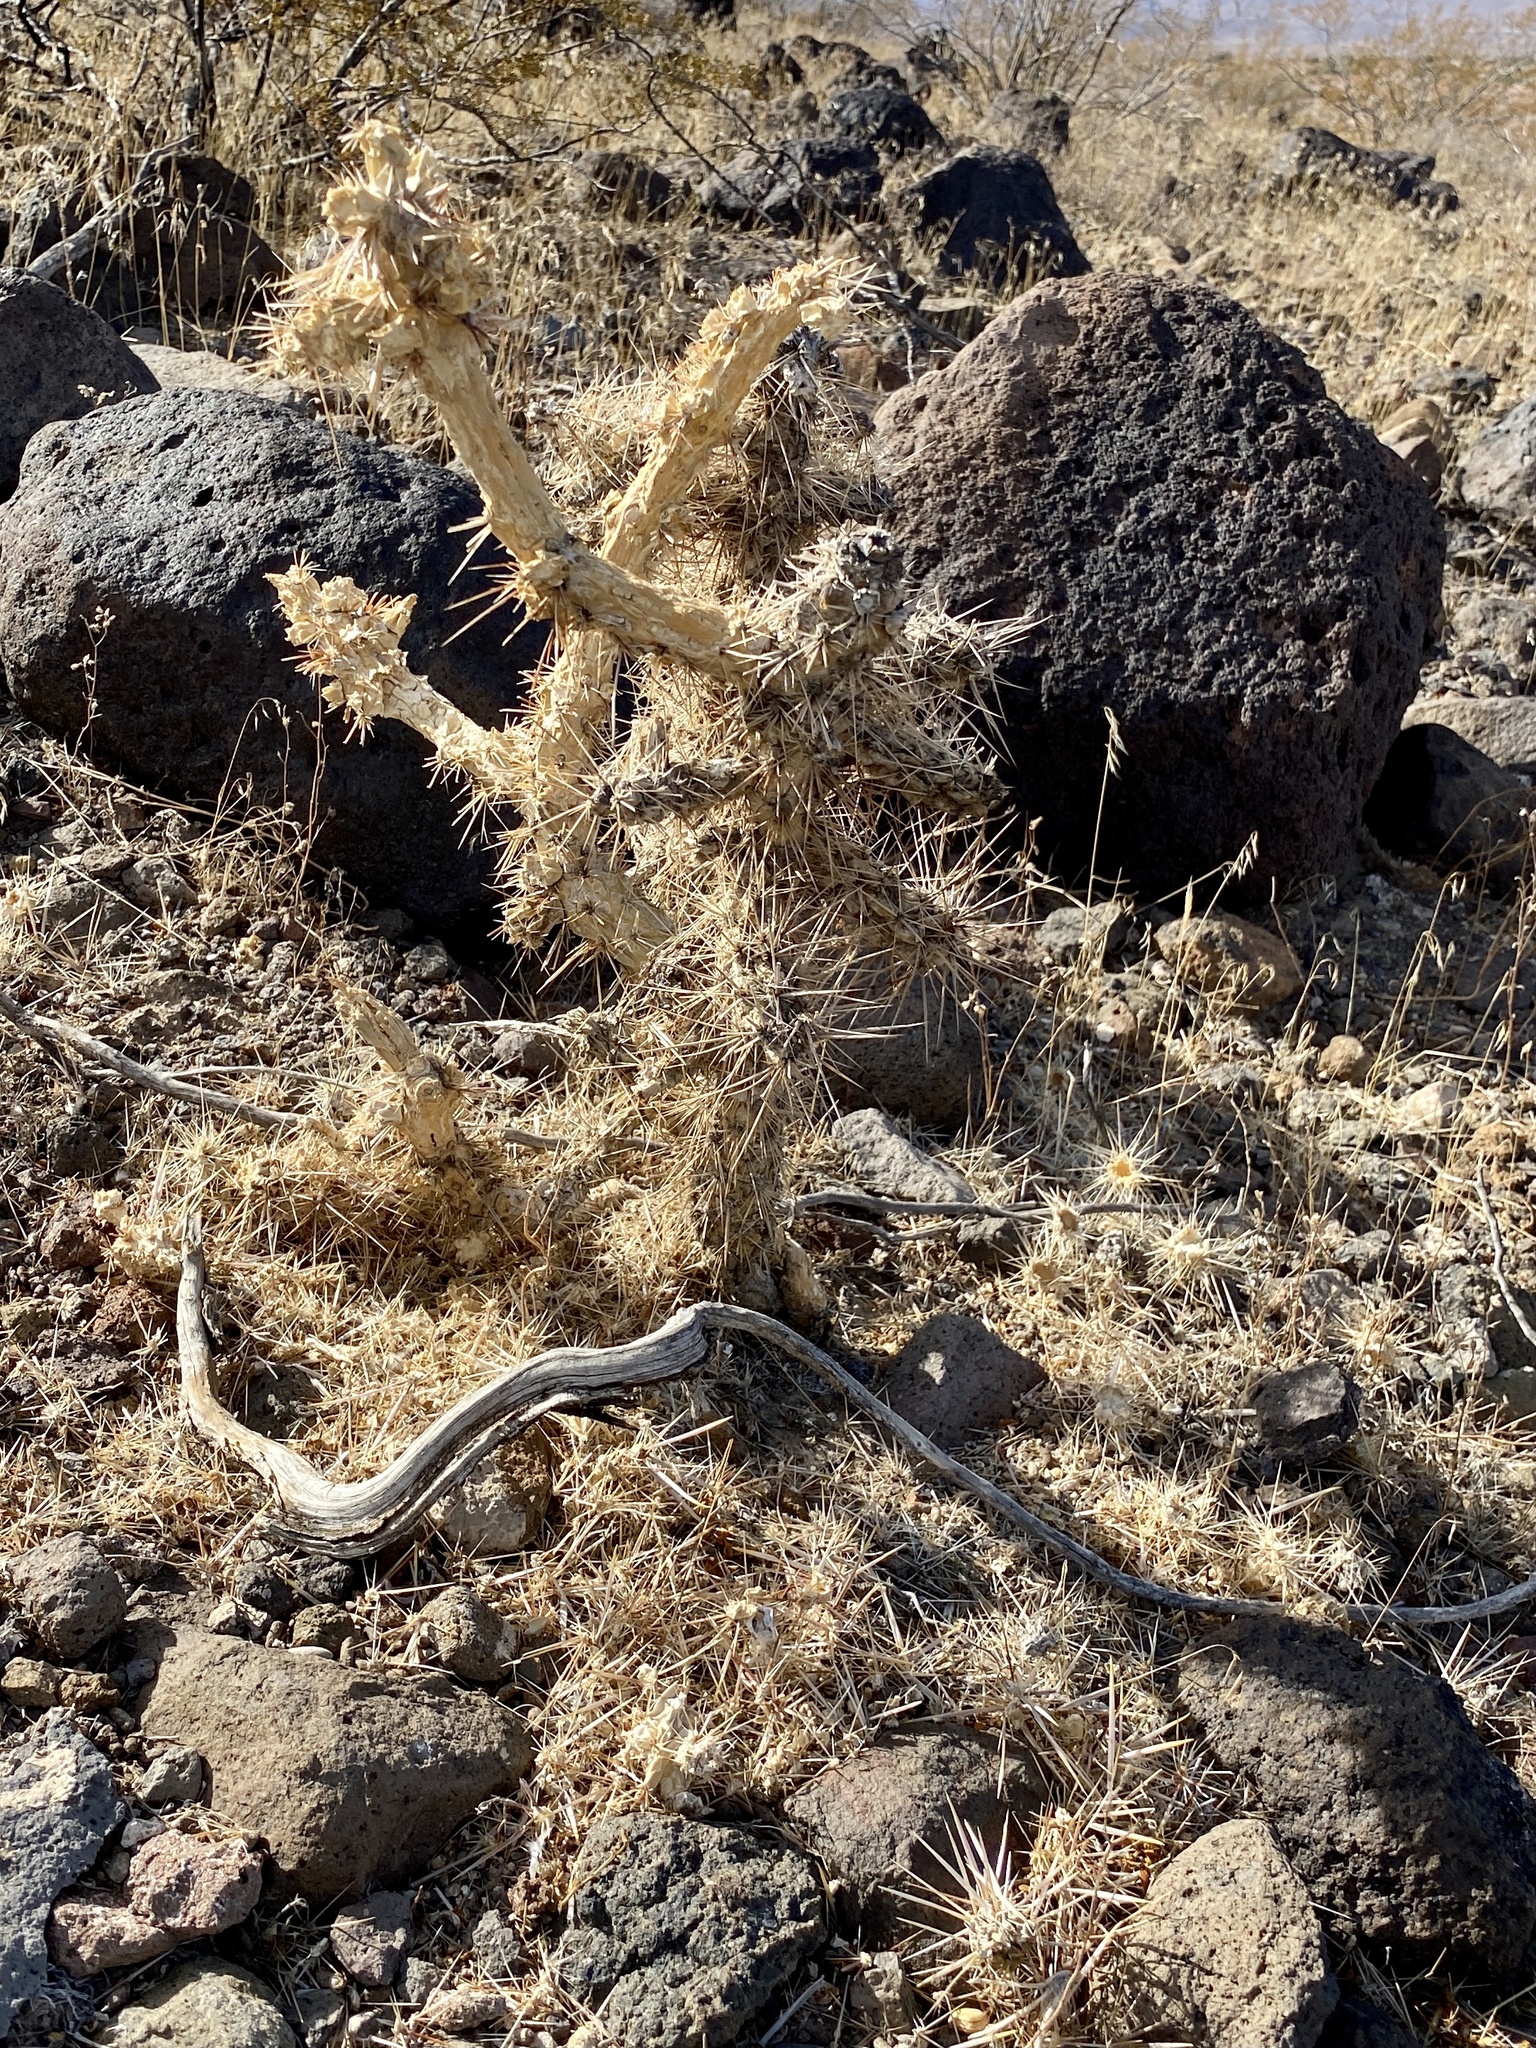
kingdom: Plantae
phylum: Tracheophyta
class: Magnoliopsida
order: Caryophyllales
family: Cactaceae
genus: Cylindropuntia
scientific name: Cylindropuntia echinocarpa
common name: Ground cholla
